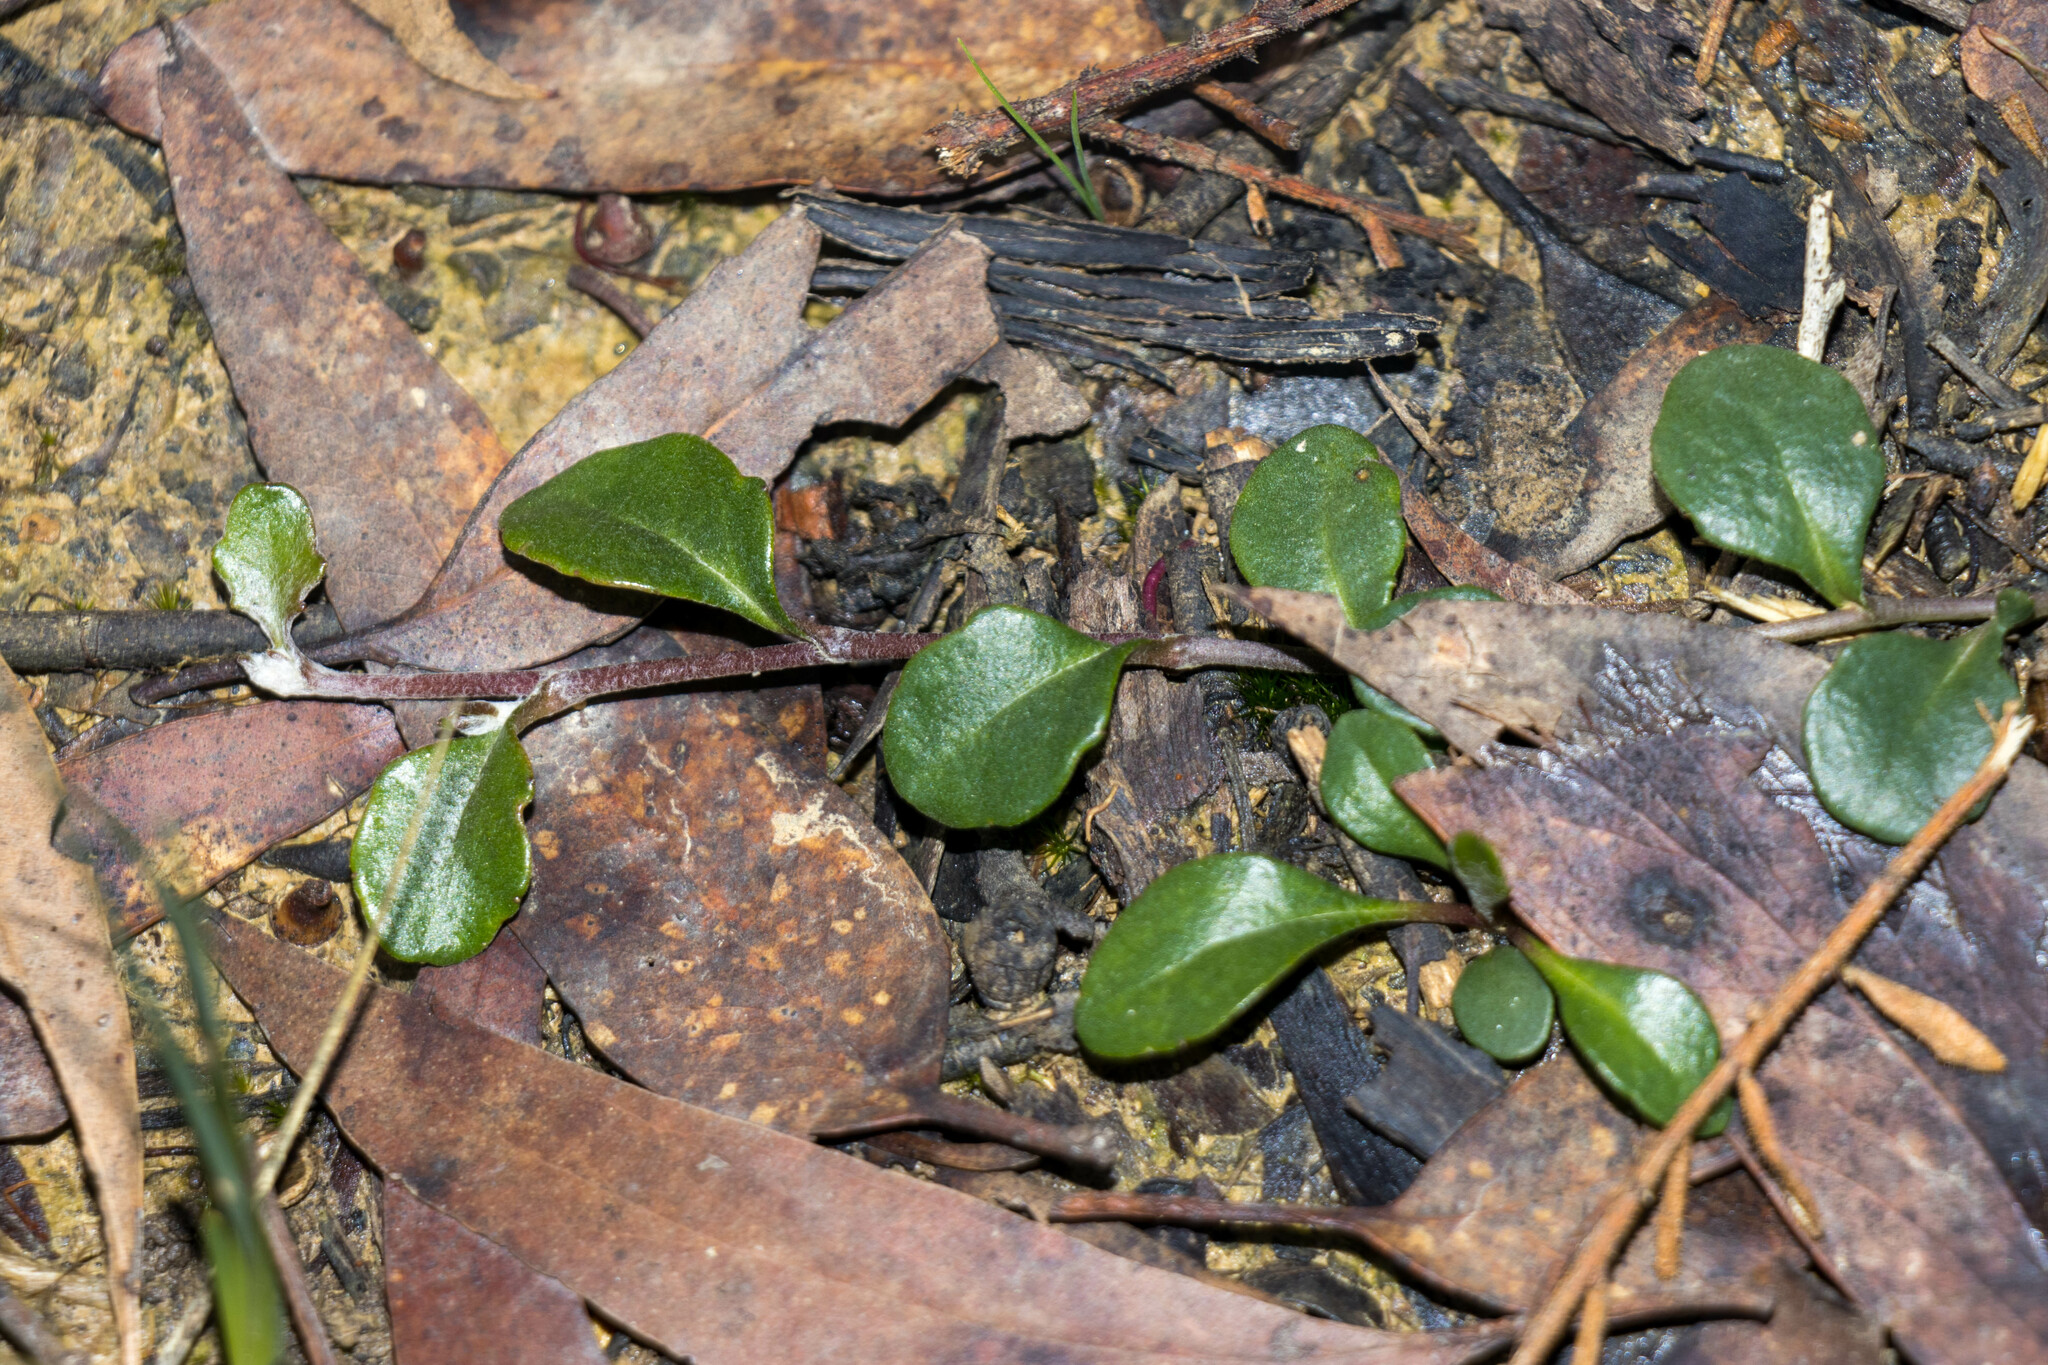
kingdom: Plantae
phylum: Tracheophyta
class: Magnoliopsida
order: Asterales
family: Goodeniaceae
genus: Goodenia
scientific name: Goodenia lanata
